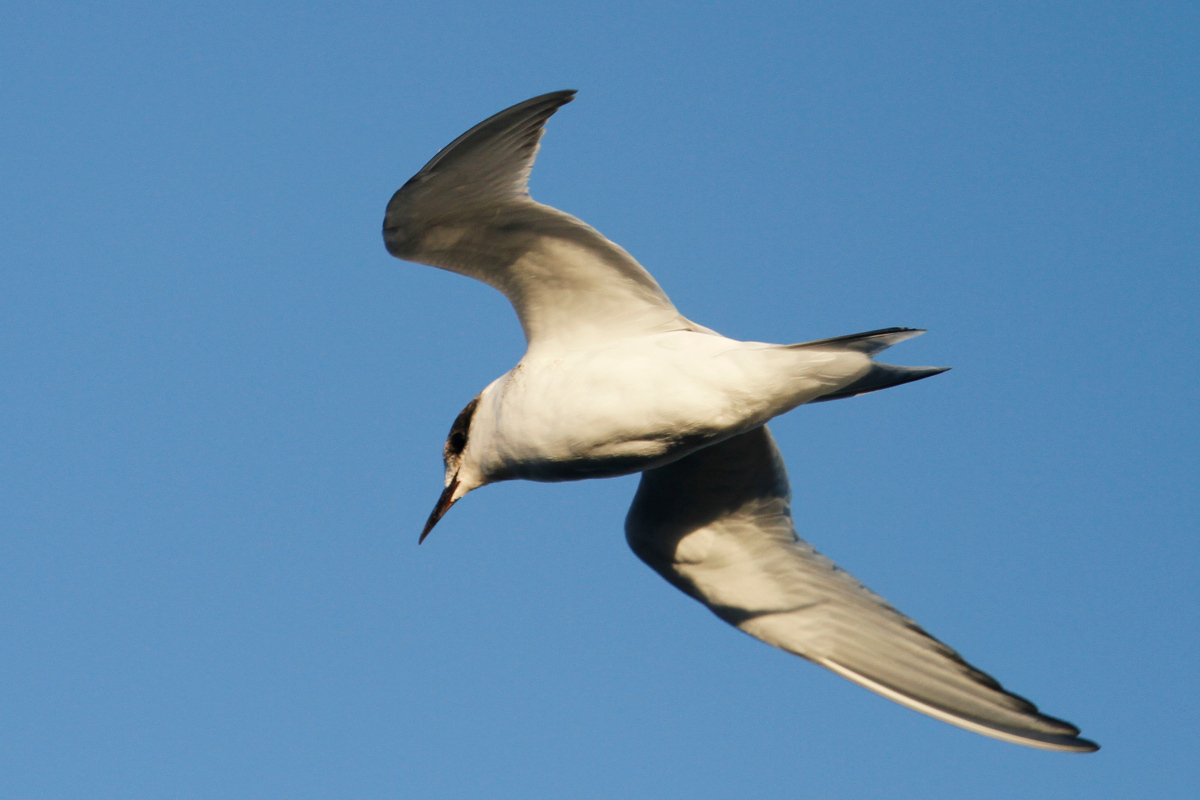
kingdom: Animalia
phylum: Chordata
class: Aves
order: Charadriiformes
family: Laridae
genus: Sterna
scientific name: Sterna vittata
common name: Antarctic tern
